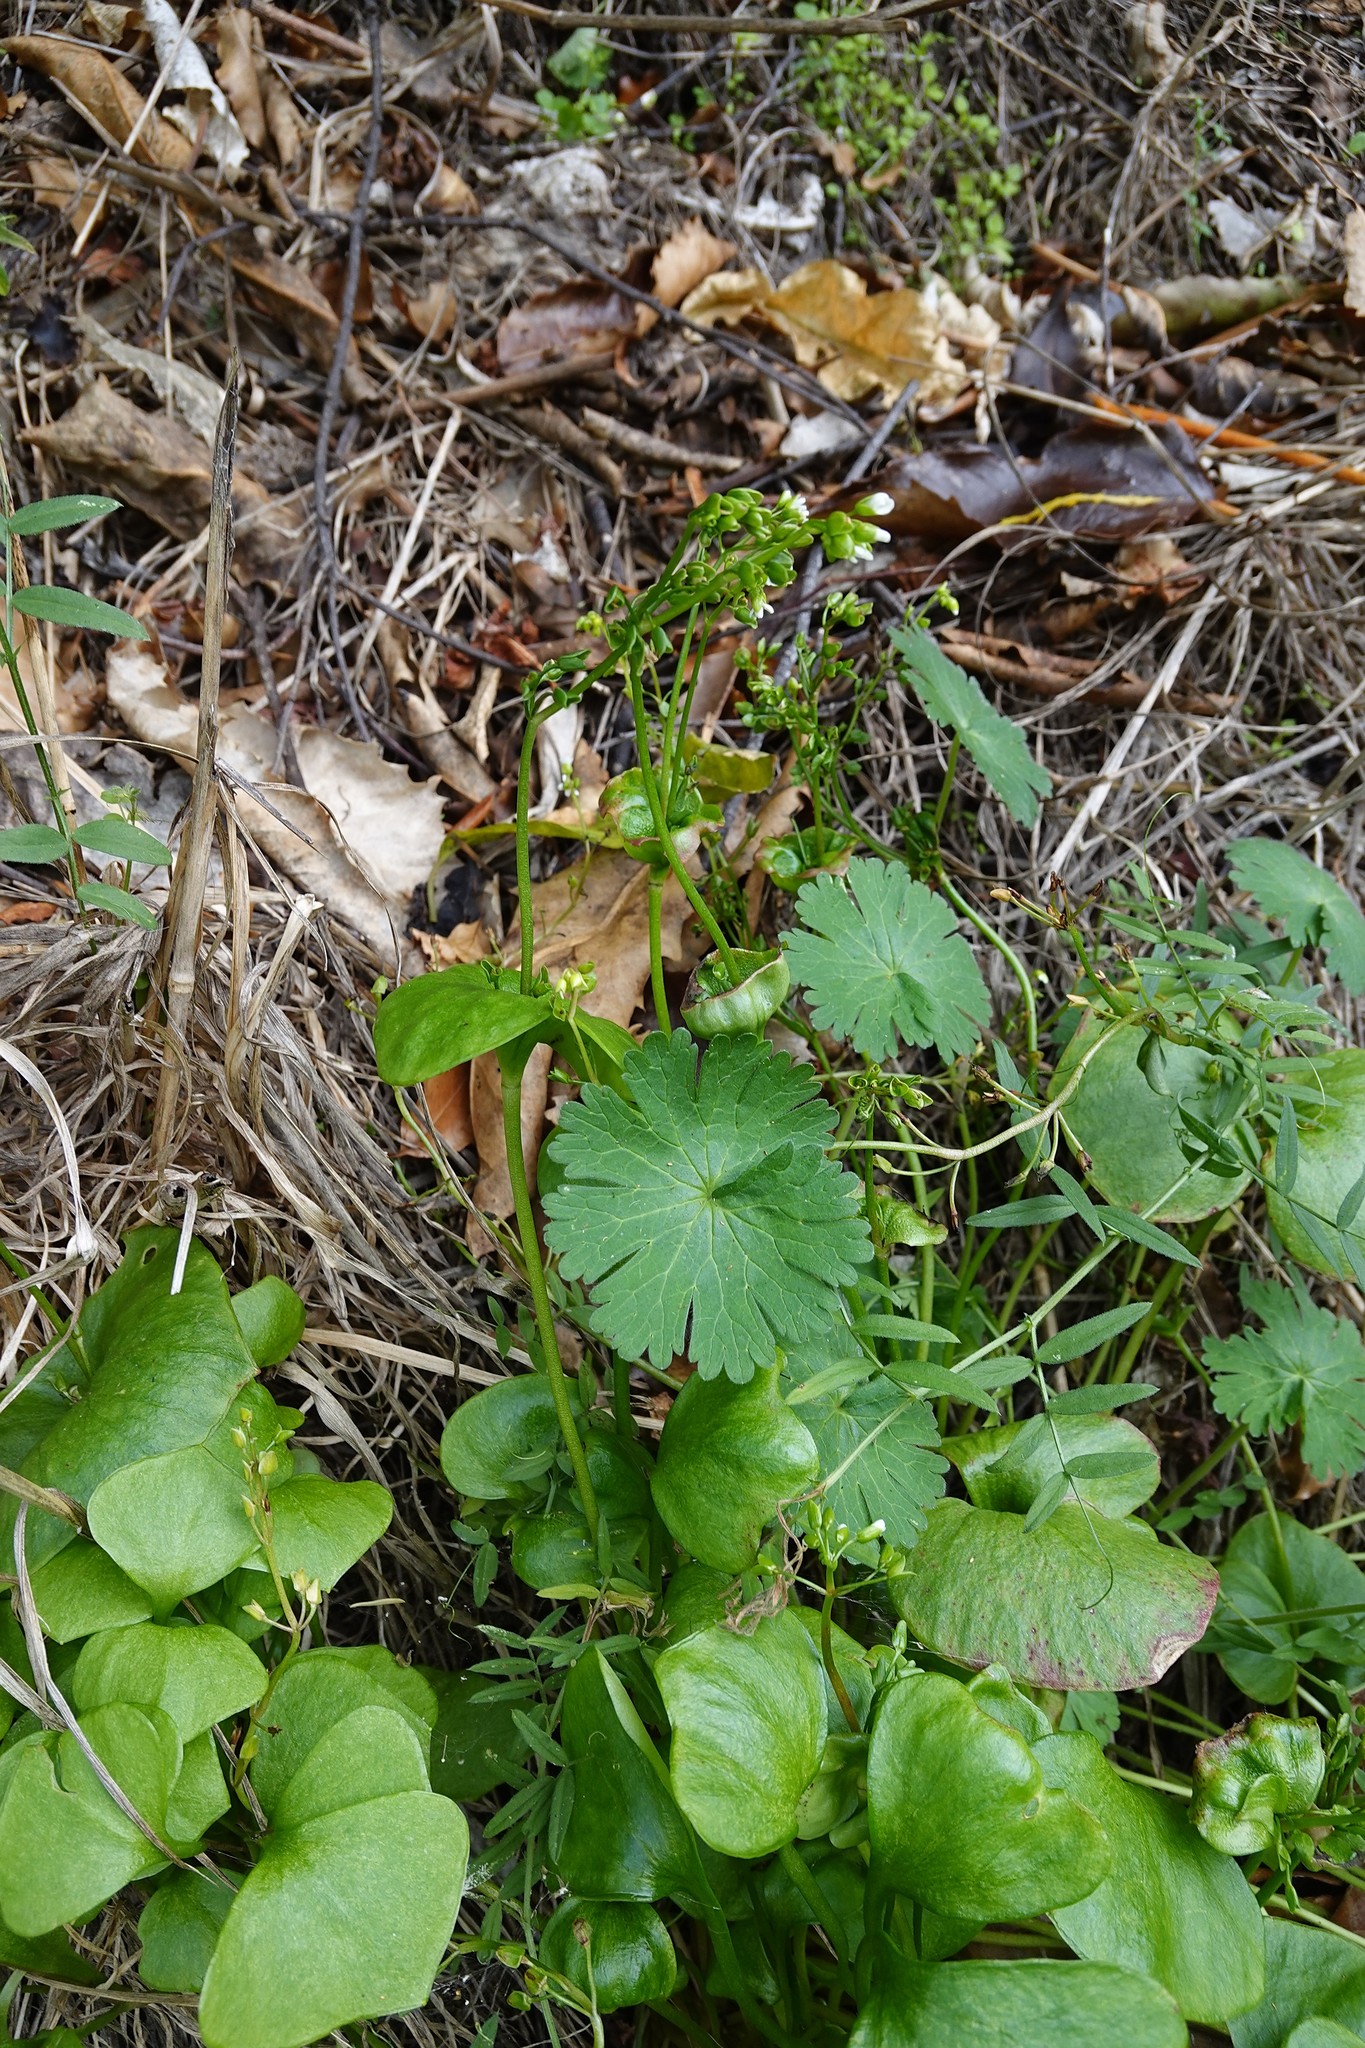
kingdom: Plantae
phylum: Tracheophyta
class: Magnoliopsida
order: Caryophyllales
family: Montiaceae
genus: Claytonia
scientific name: Claytonia perfoliata
